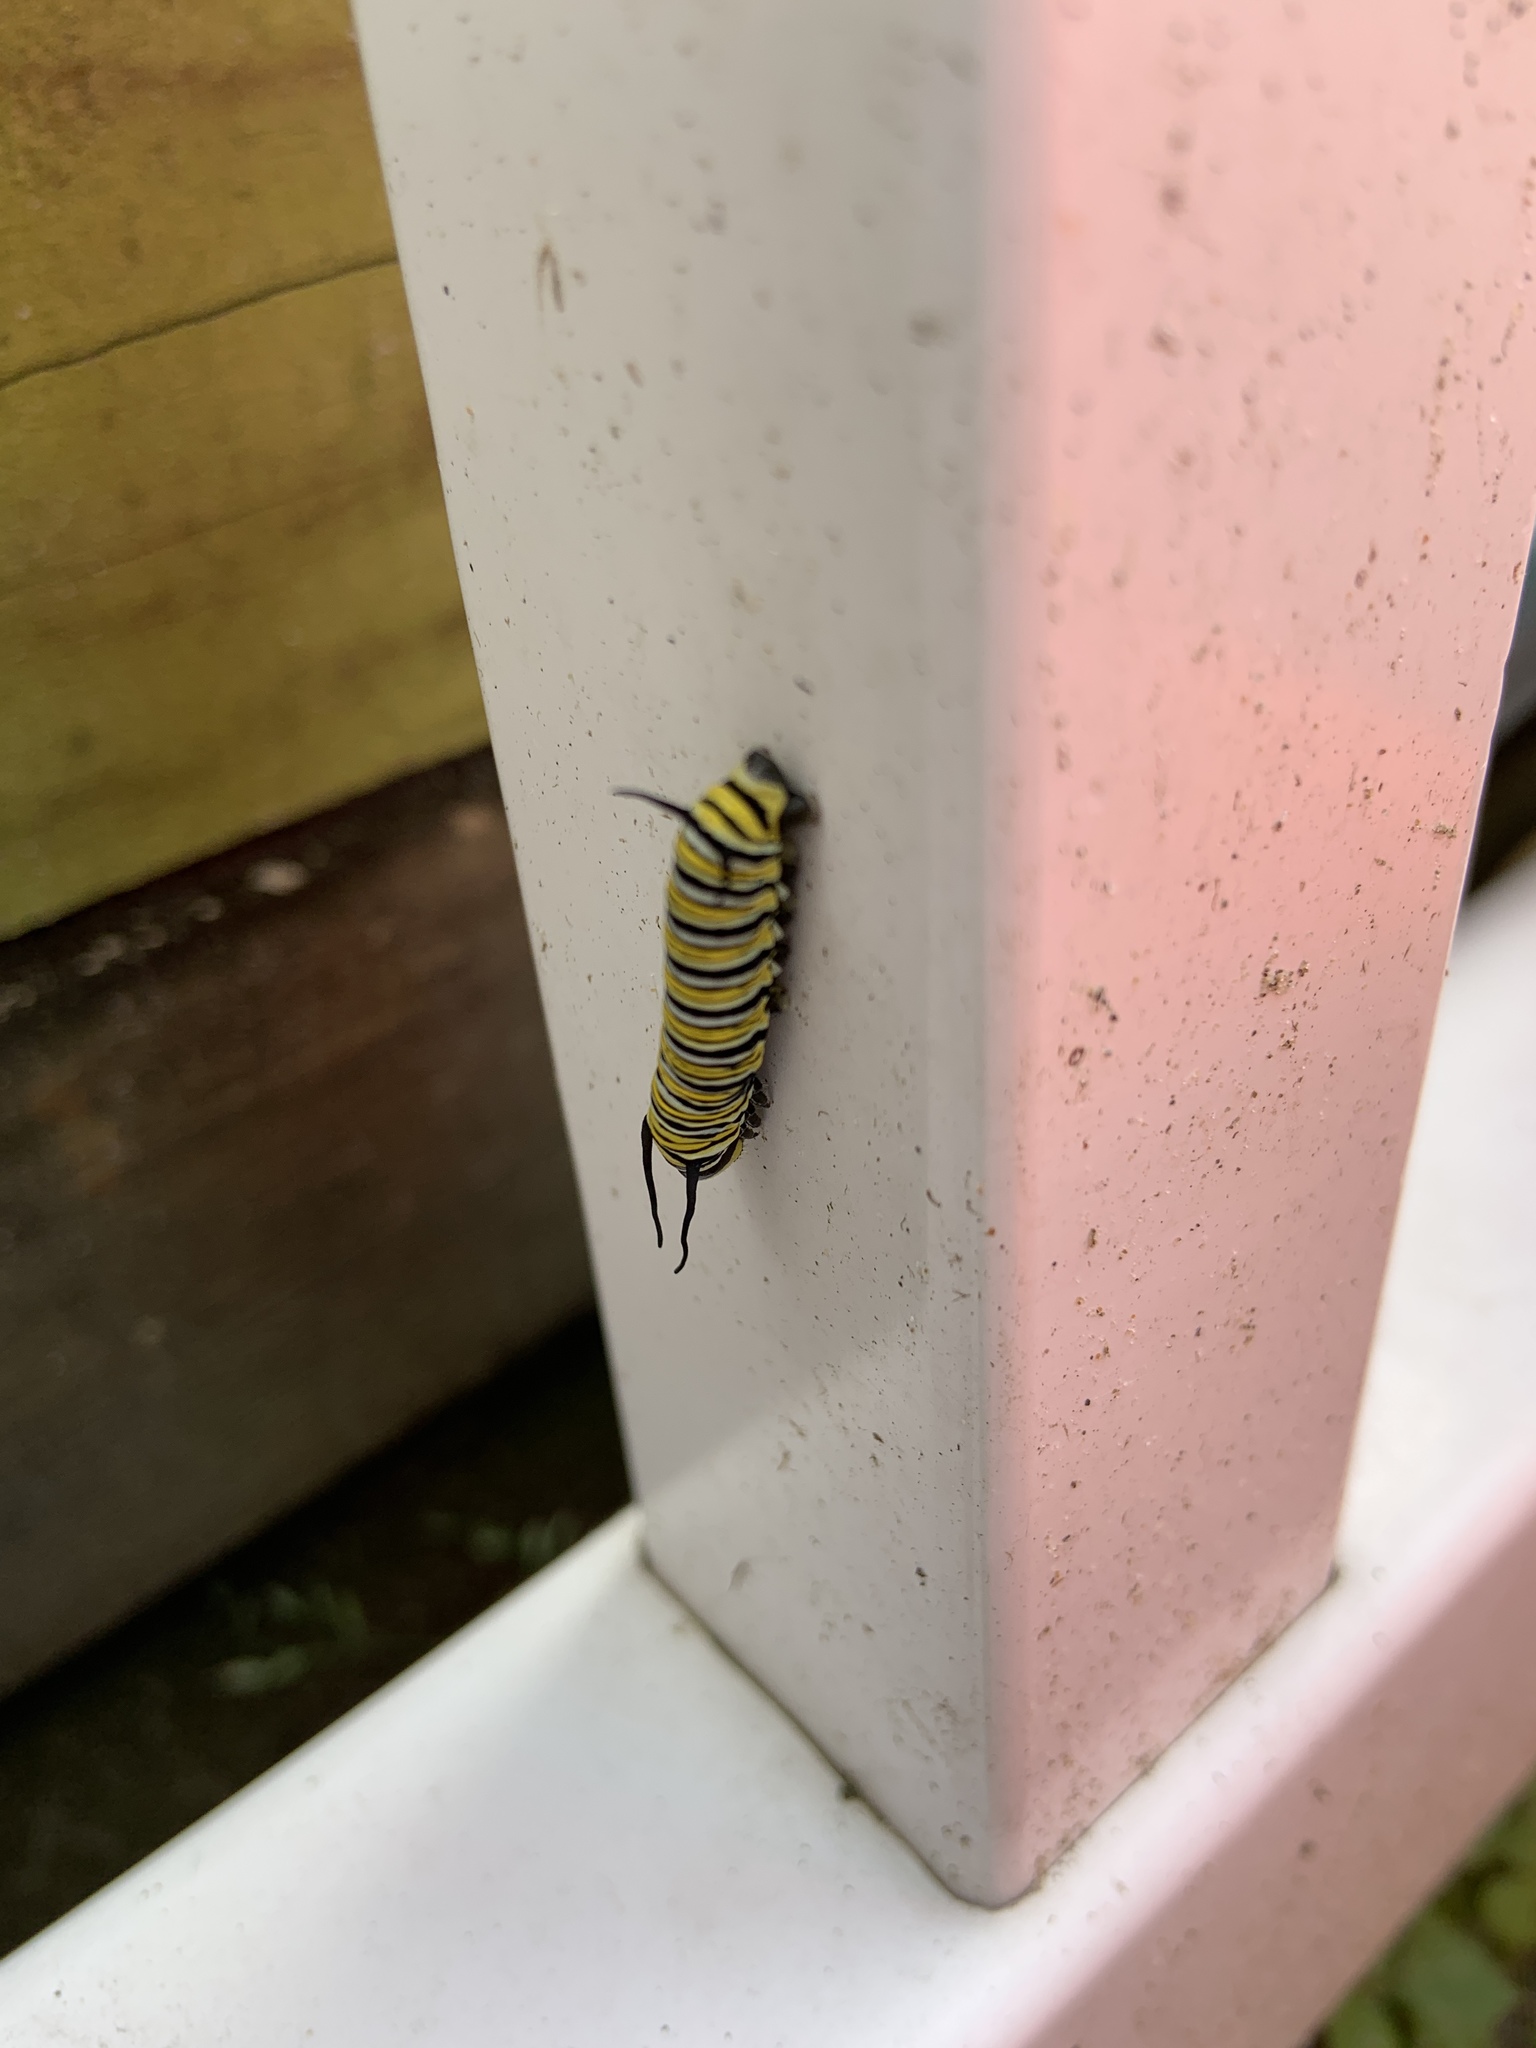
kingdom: Animalia
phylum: Arthropoda
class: Insecta
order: Lepidoptera
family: Nymphalidae
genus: Danaus
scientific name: Danaus plexippus
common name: Monarch
